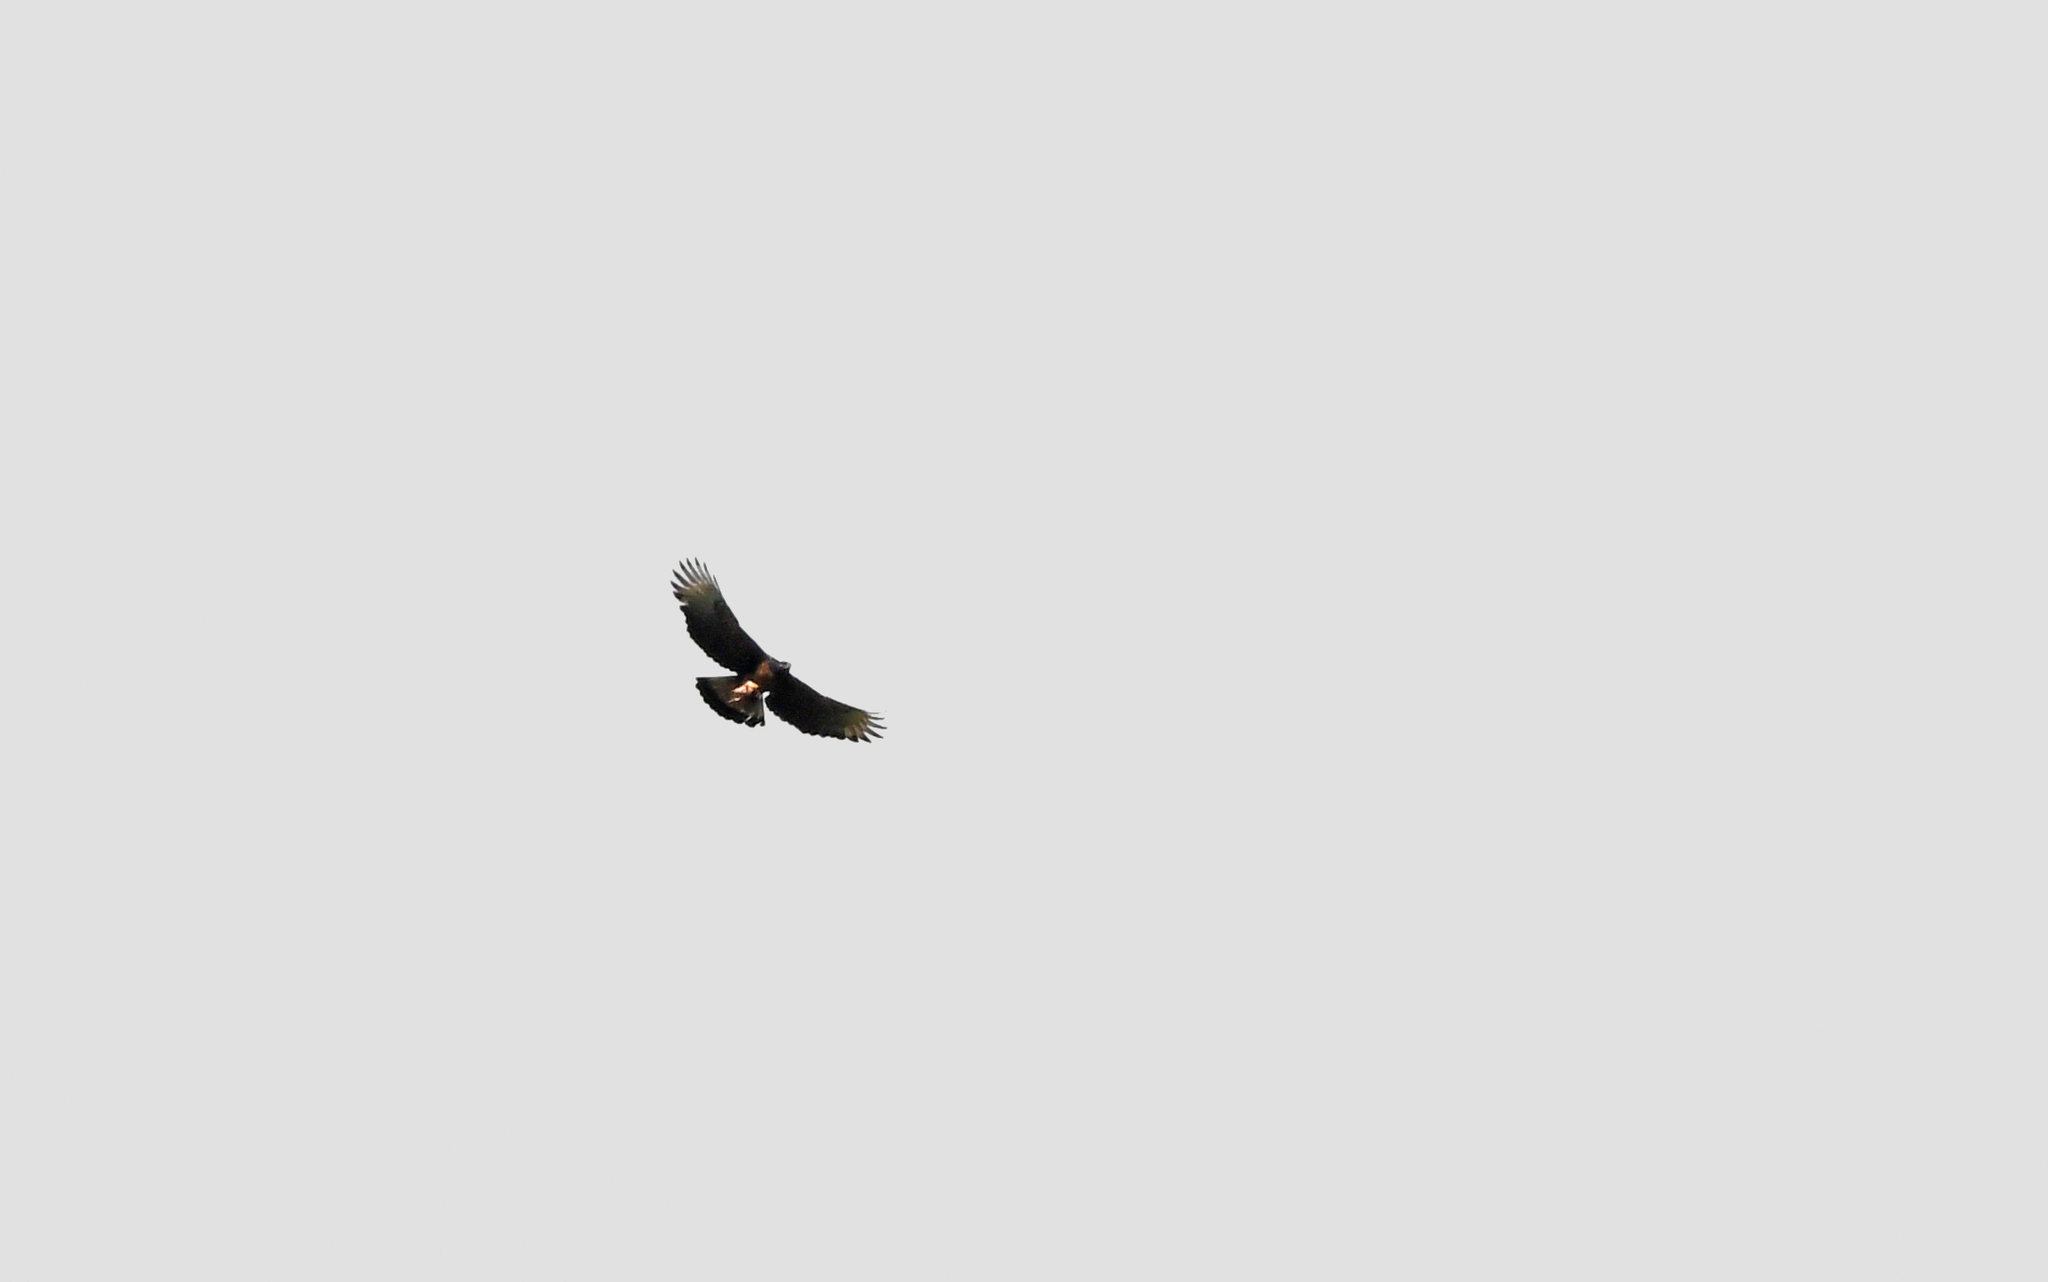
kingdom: Animalia
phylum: Chordata
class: Aves
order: Accipitriformes
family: Accipitridae
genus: Spizaetus
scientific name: Spizaetus isidori
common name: Black-and-chestnut eagle
